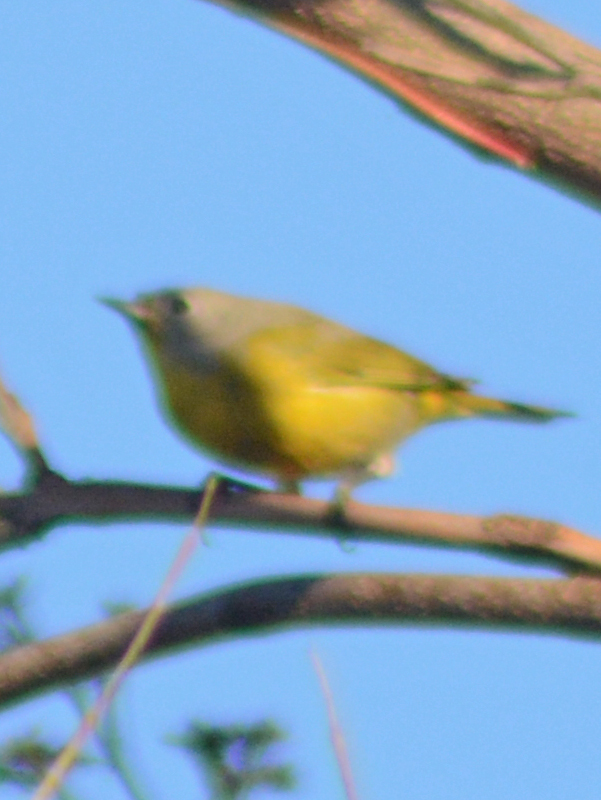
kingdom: Animalia
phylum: Chordata
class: Aves
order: Passeriformes
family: Parulidae
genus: Leiothlypis
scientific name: Leiothlypis ruficapilla
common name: Nashville warbler
